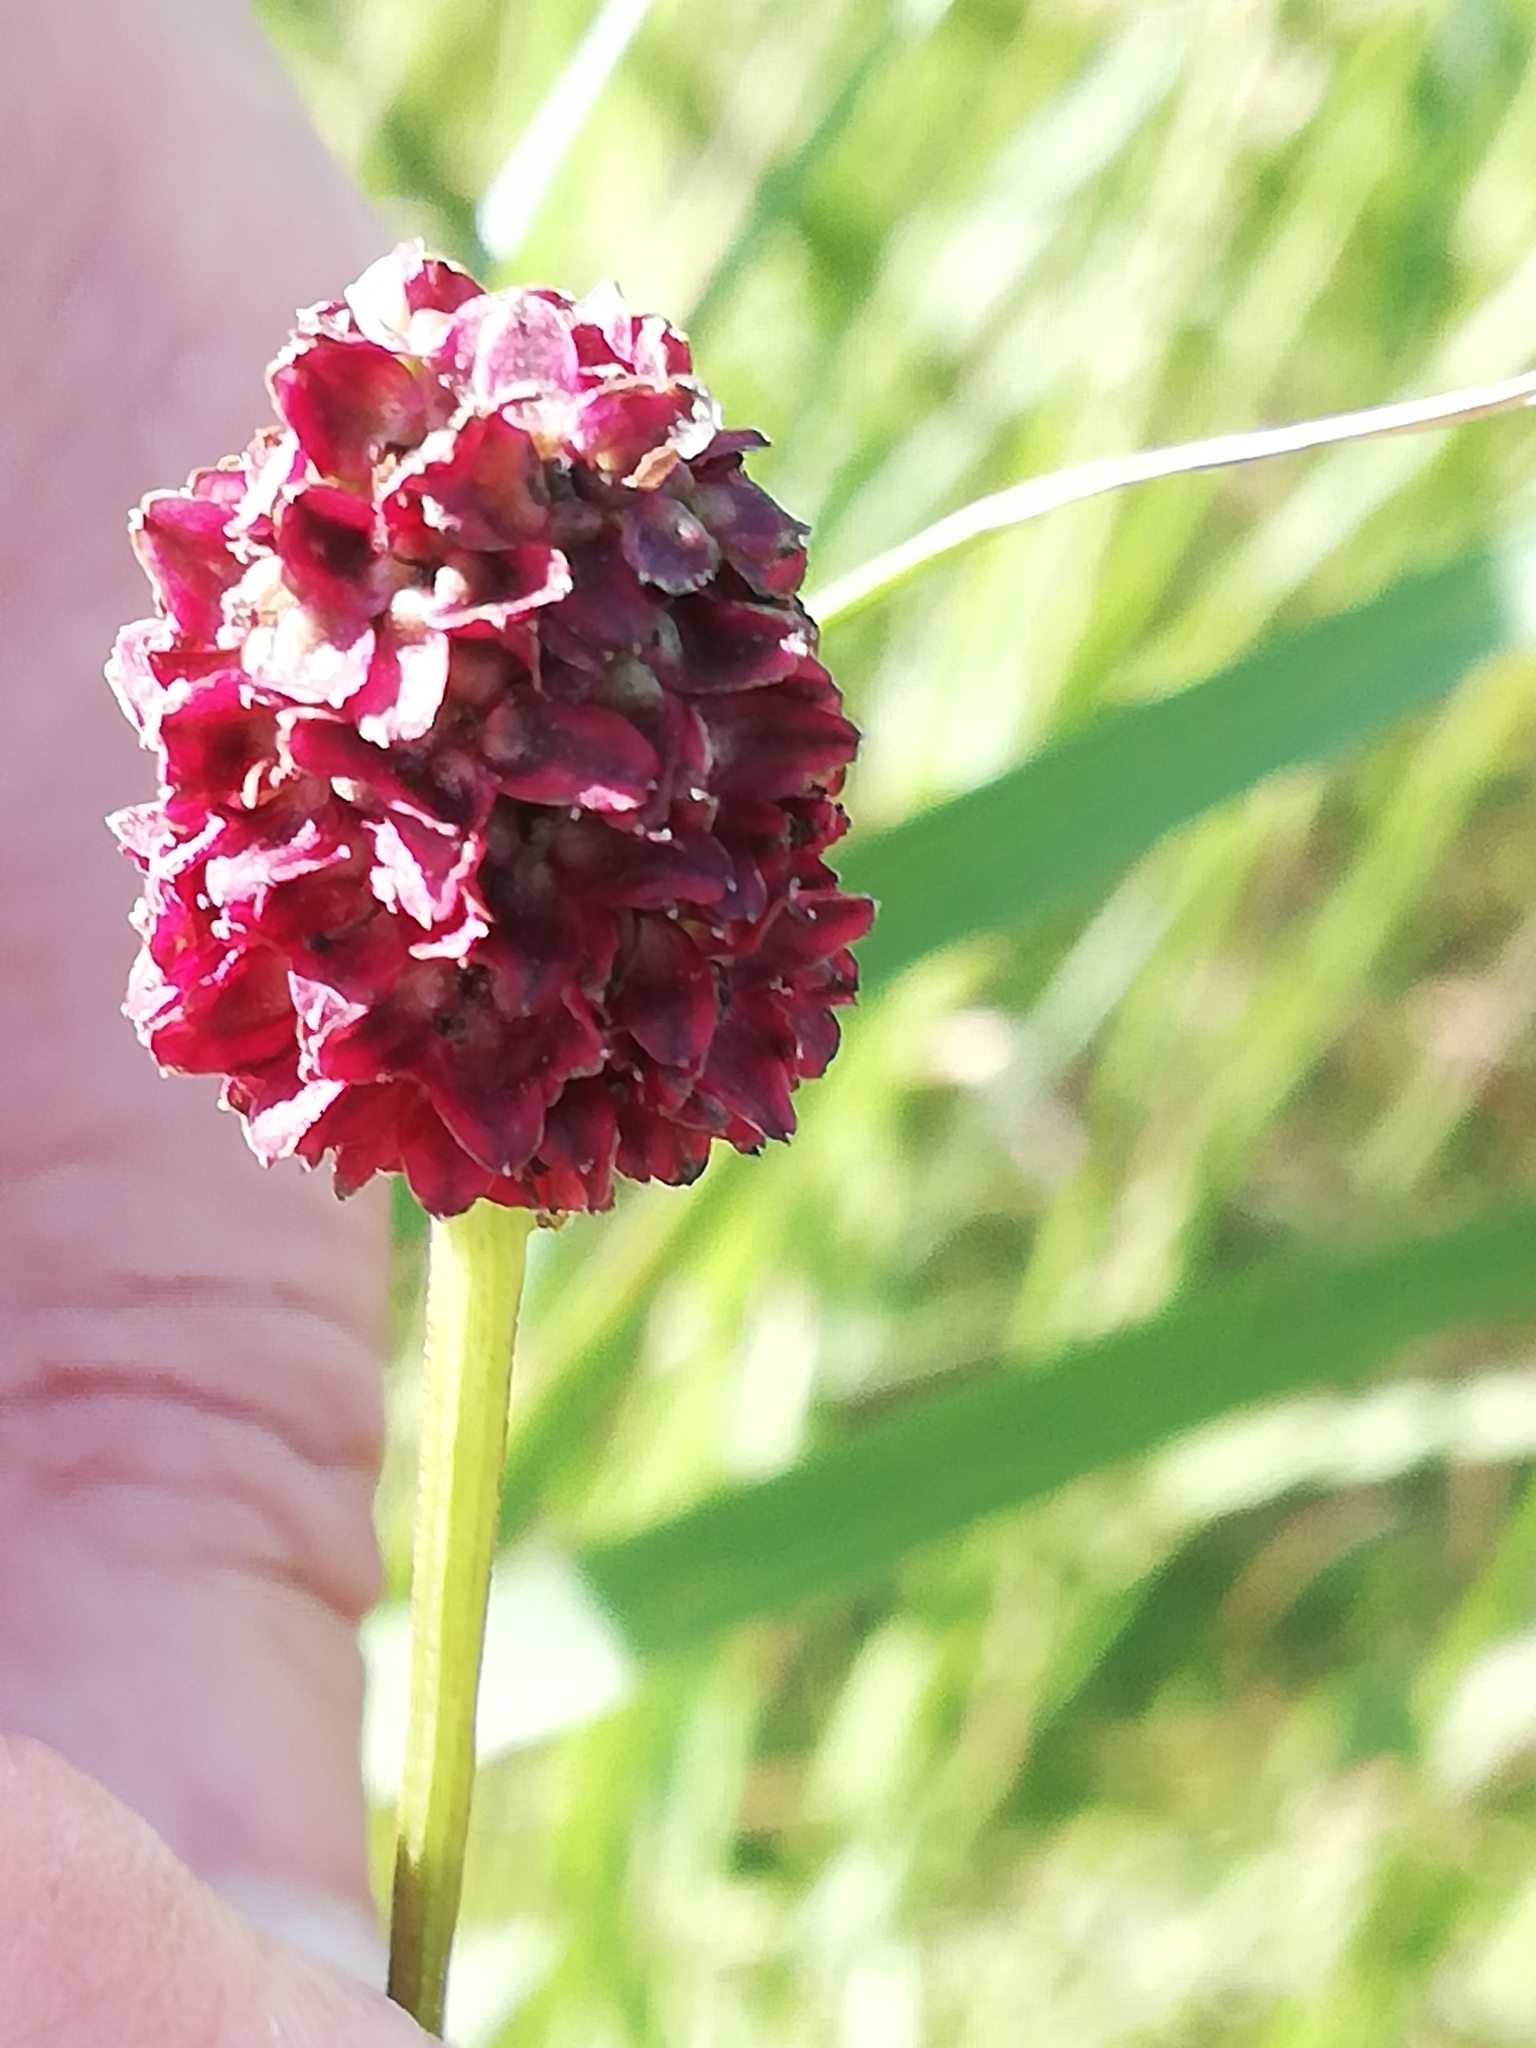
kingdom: Plantae
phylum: Tracheophyta
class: Magnoliopsida
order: Rosales
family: Rosaceae
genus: Sanguisorba
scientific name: Sanguisorba officinalis
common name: Great burnet
